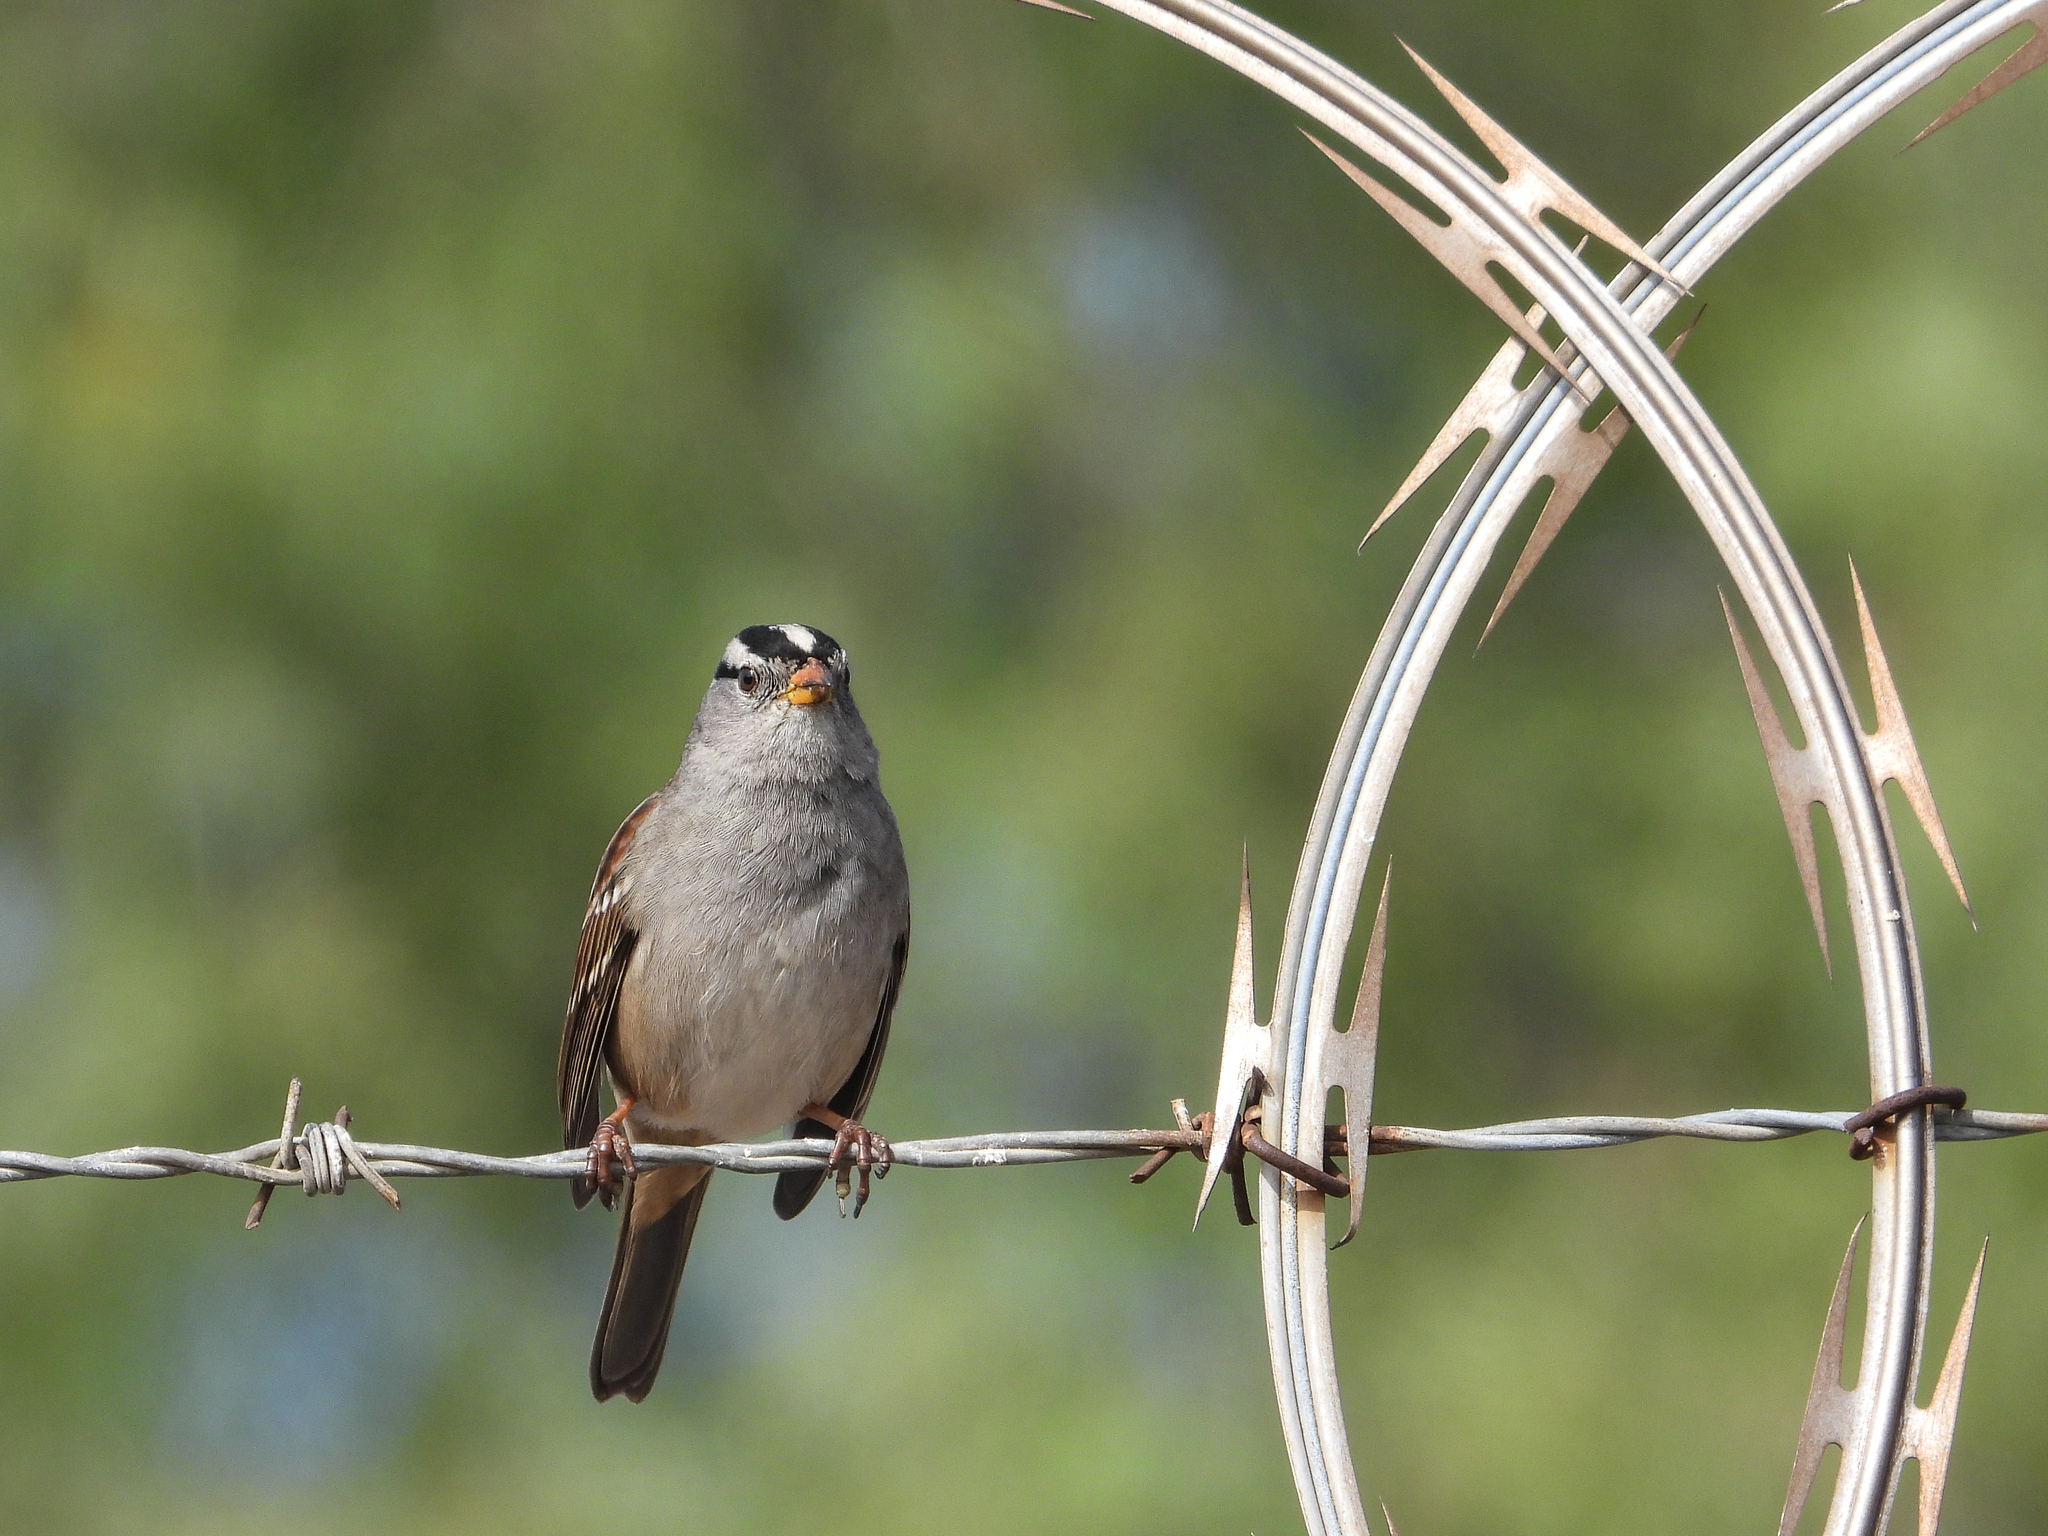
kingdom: Animalia
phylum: Chordata
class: Aves
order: Passeriformes
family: Passerellidae
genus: Zonotrichia
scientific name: Zonotrichia leucophrys
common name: White-crowned sparrow
